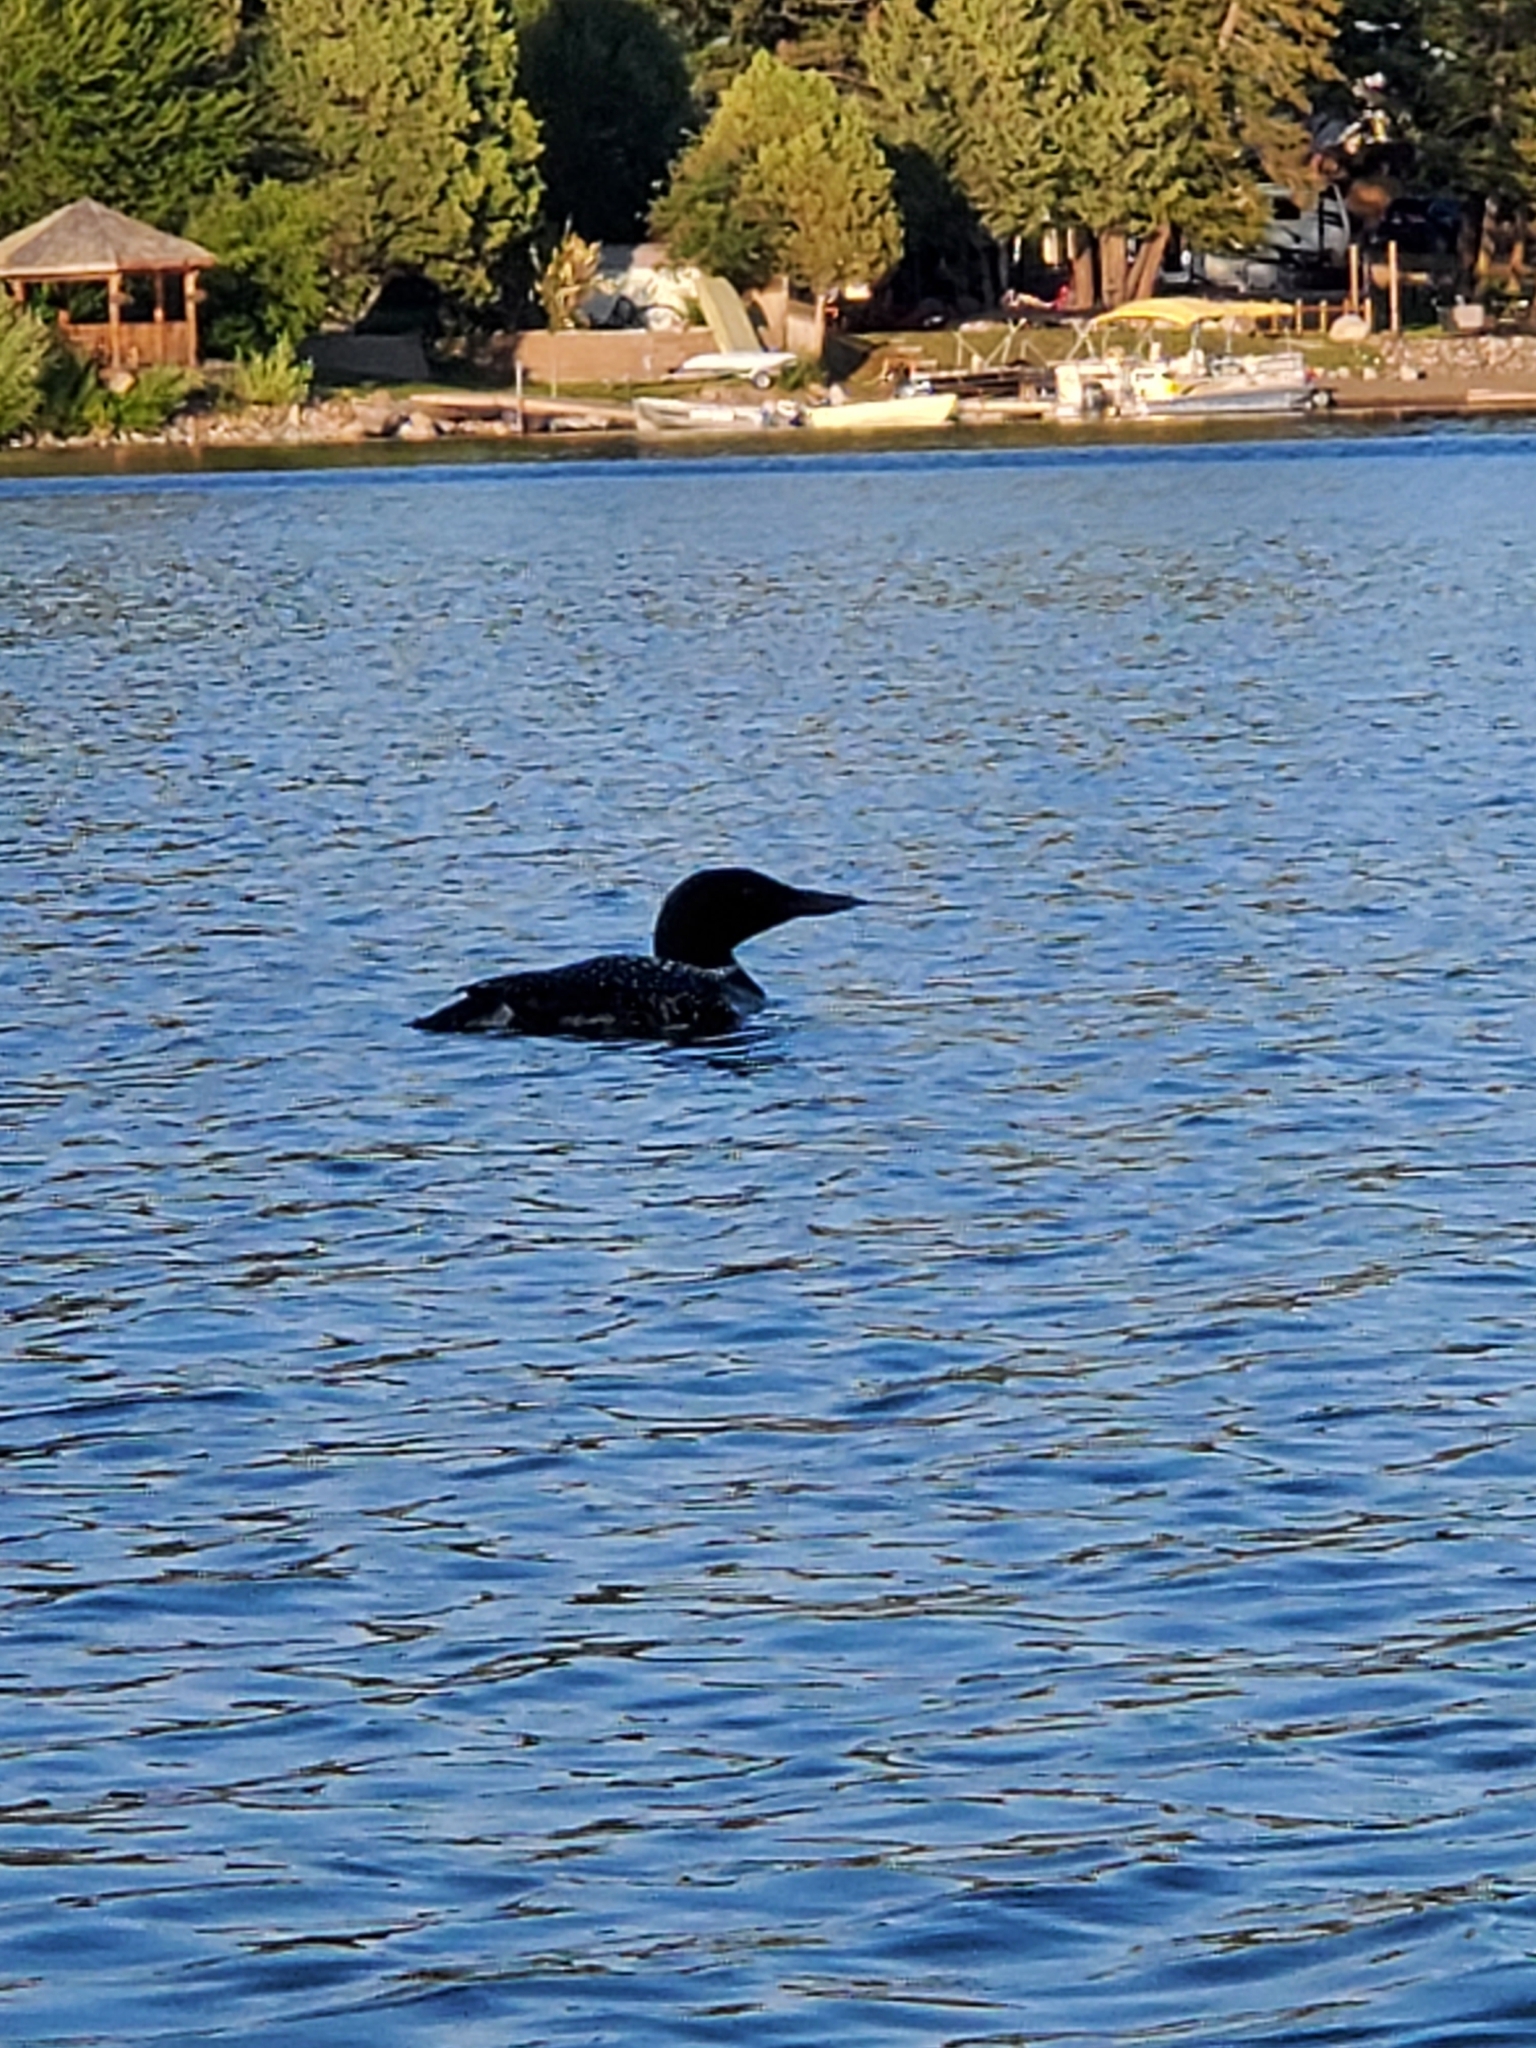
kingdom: Animalia
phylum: Chordata
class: Aves
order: Gaviiformes
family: Gaviidae
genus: Gavia
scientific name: Gavia immer
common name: Common loon
